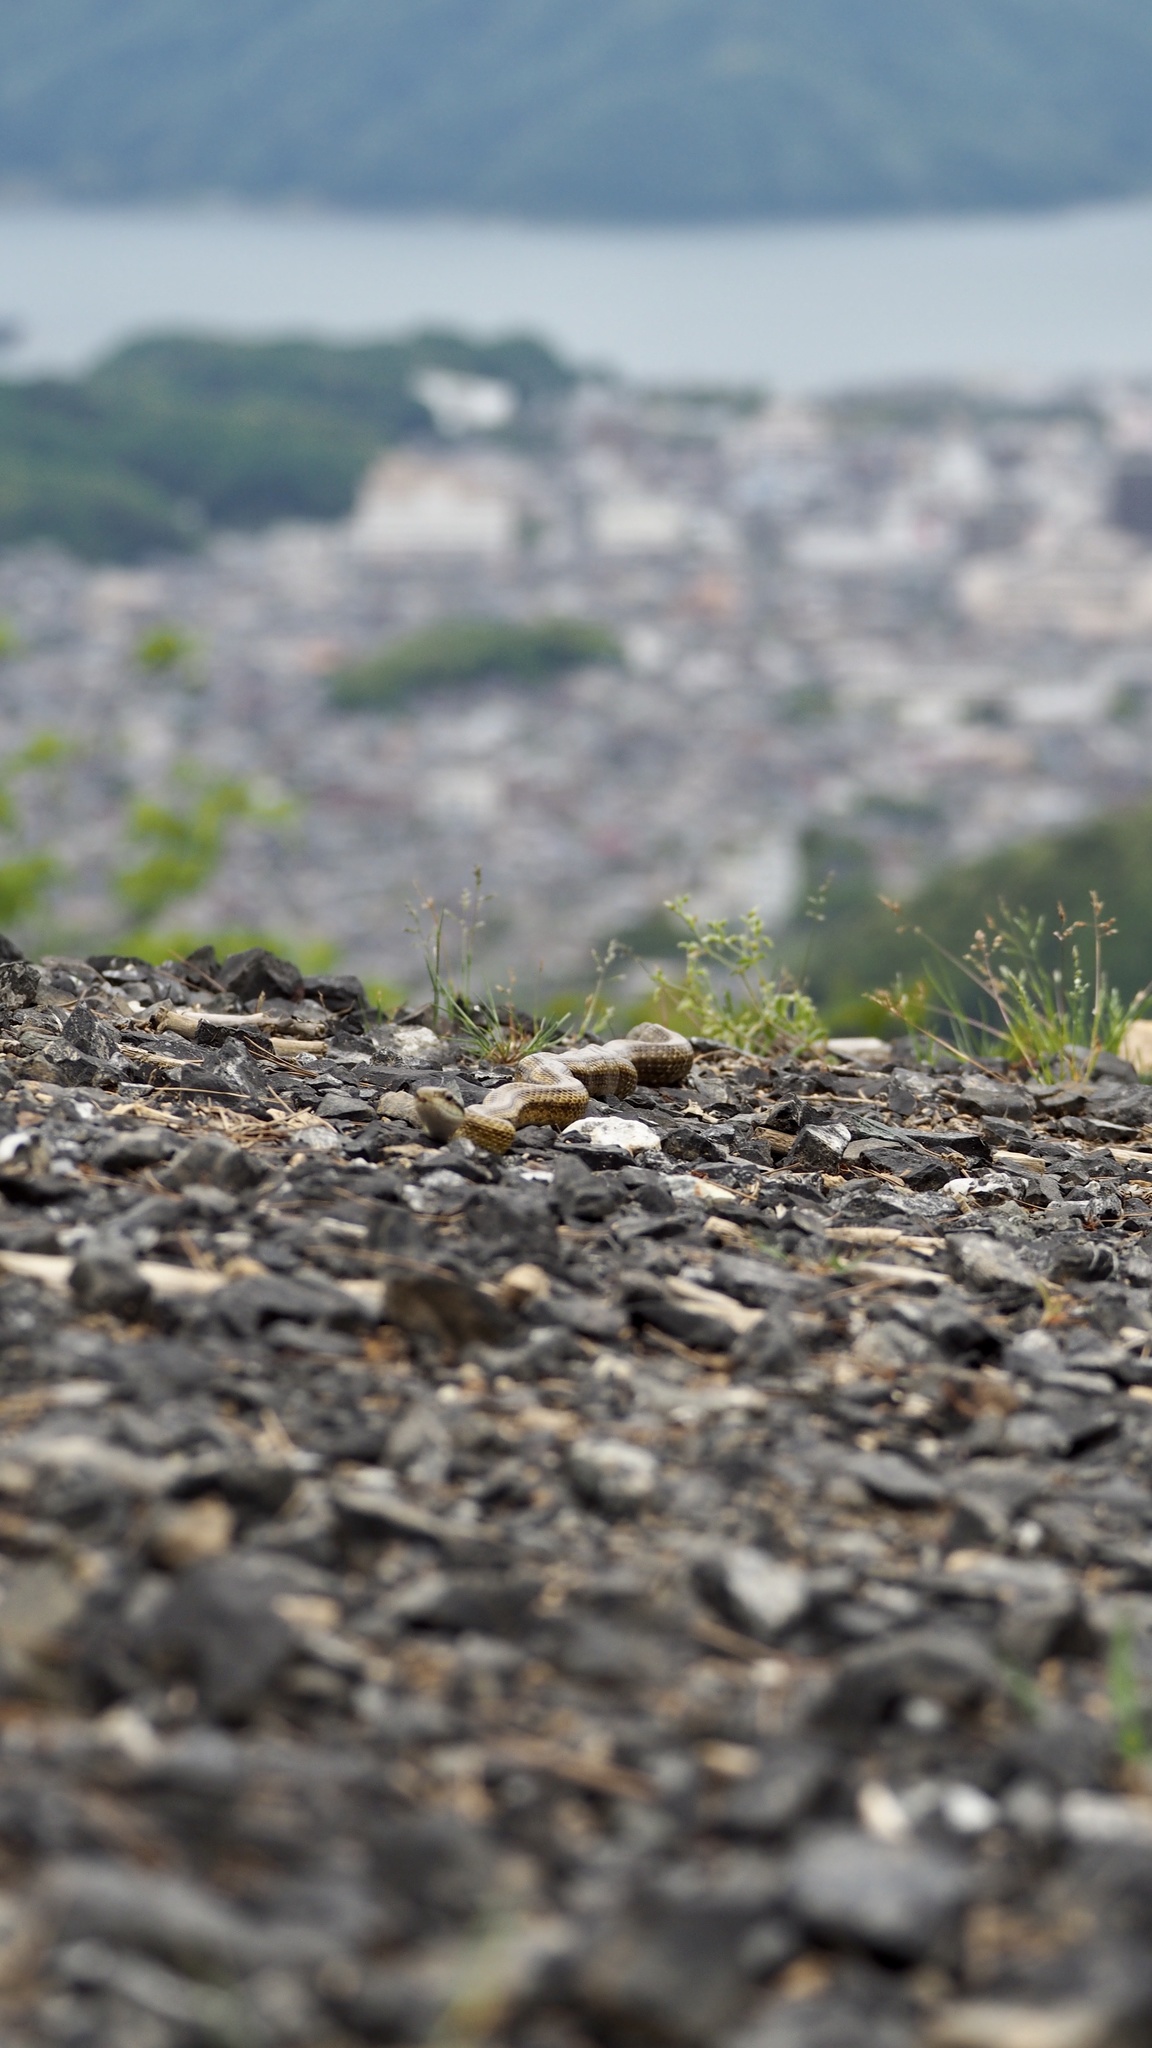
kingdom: Animalia
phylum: Chordata
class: Squamata
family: Colubridae
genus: Elaphe
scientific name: Elaphe climacophora
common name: Japanese ratsnake
